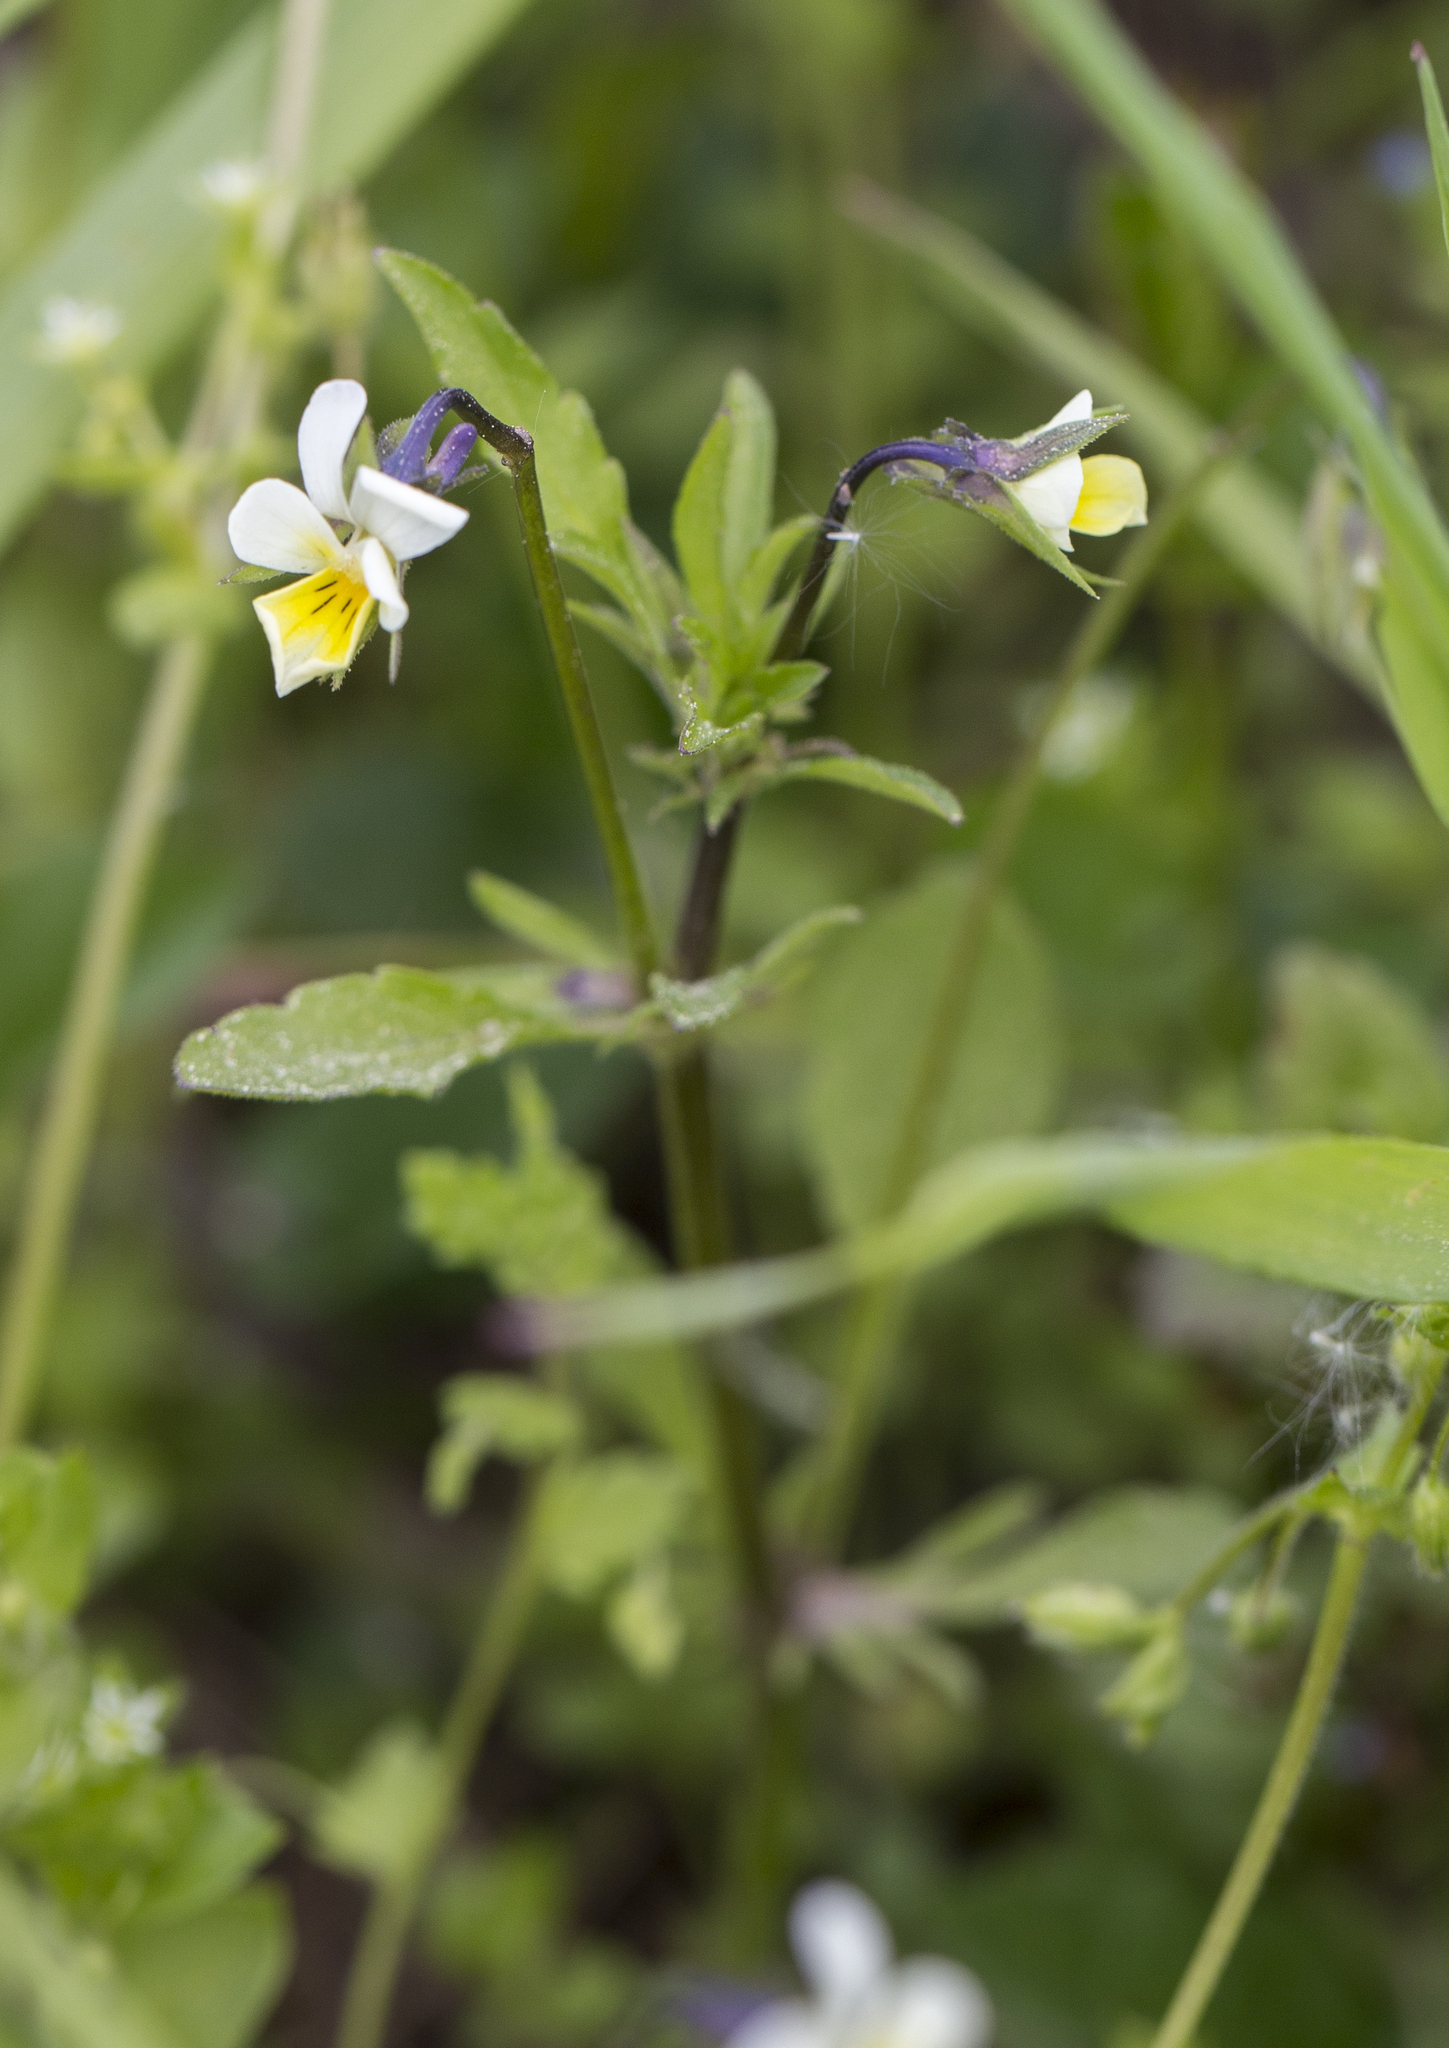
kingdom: Plantae
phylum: Tracheophyta
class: Magnoliopsida
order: Malpighiales
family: Violaceae
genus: Viola
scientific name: Viola arvensis
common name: Field pansy
